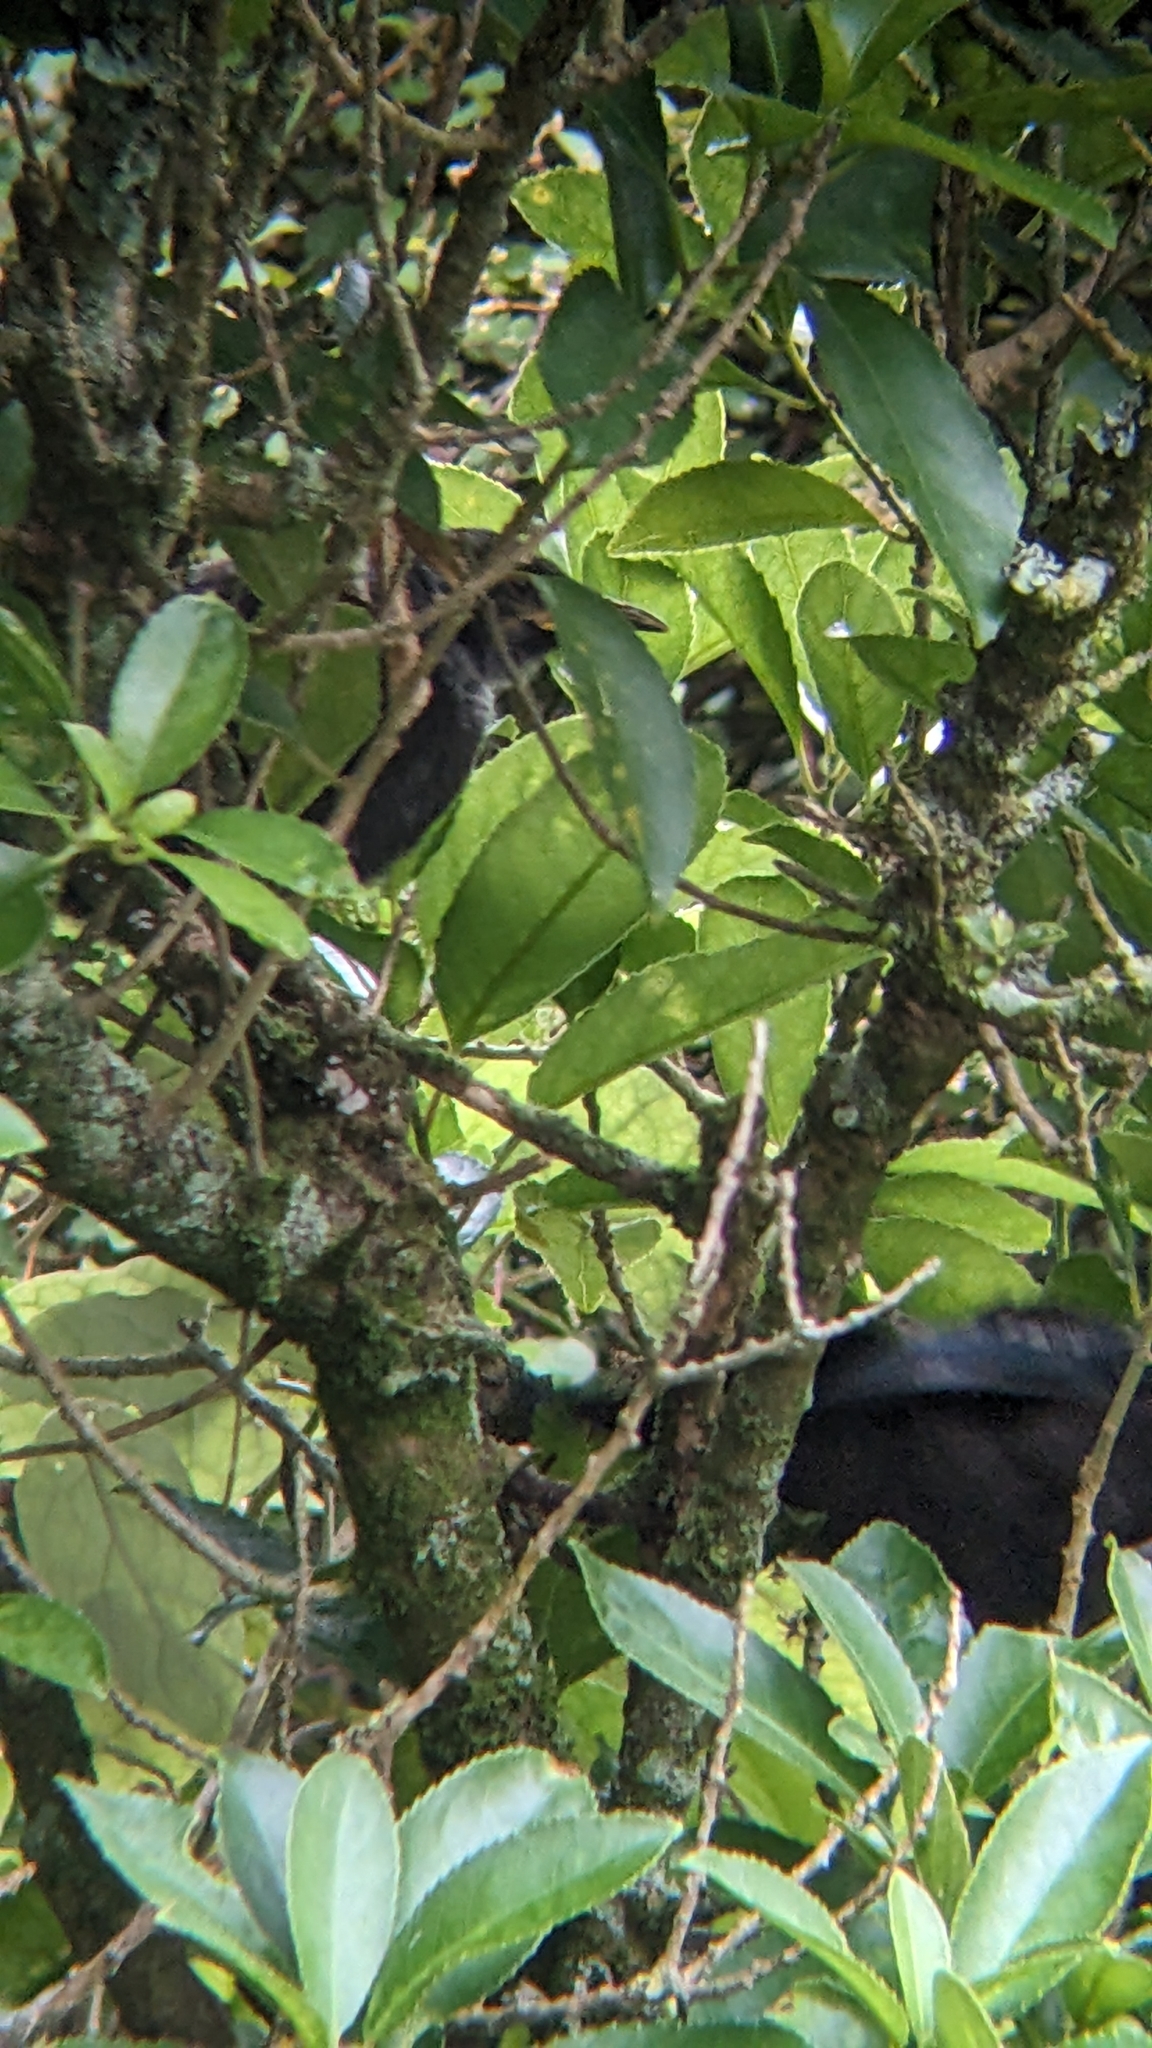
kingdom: Animalia
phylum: Chordata
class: Aves
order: Passeriformes
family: Meliphagidae
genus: Prosthemadera
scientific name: Prosthemadera novaeseelandiae
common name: Tui
